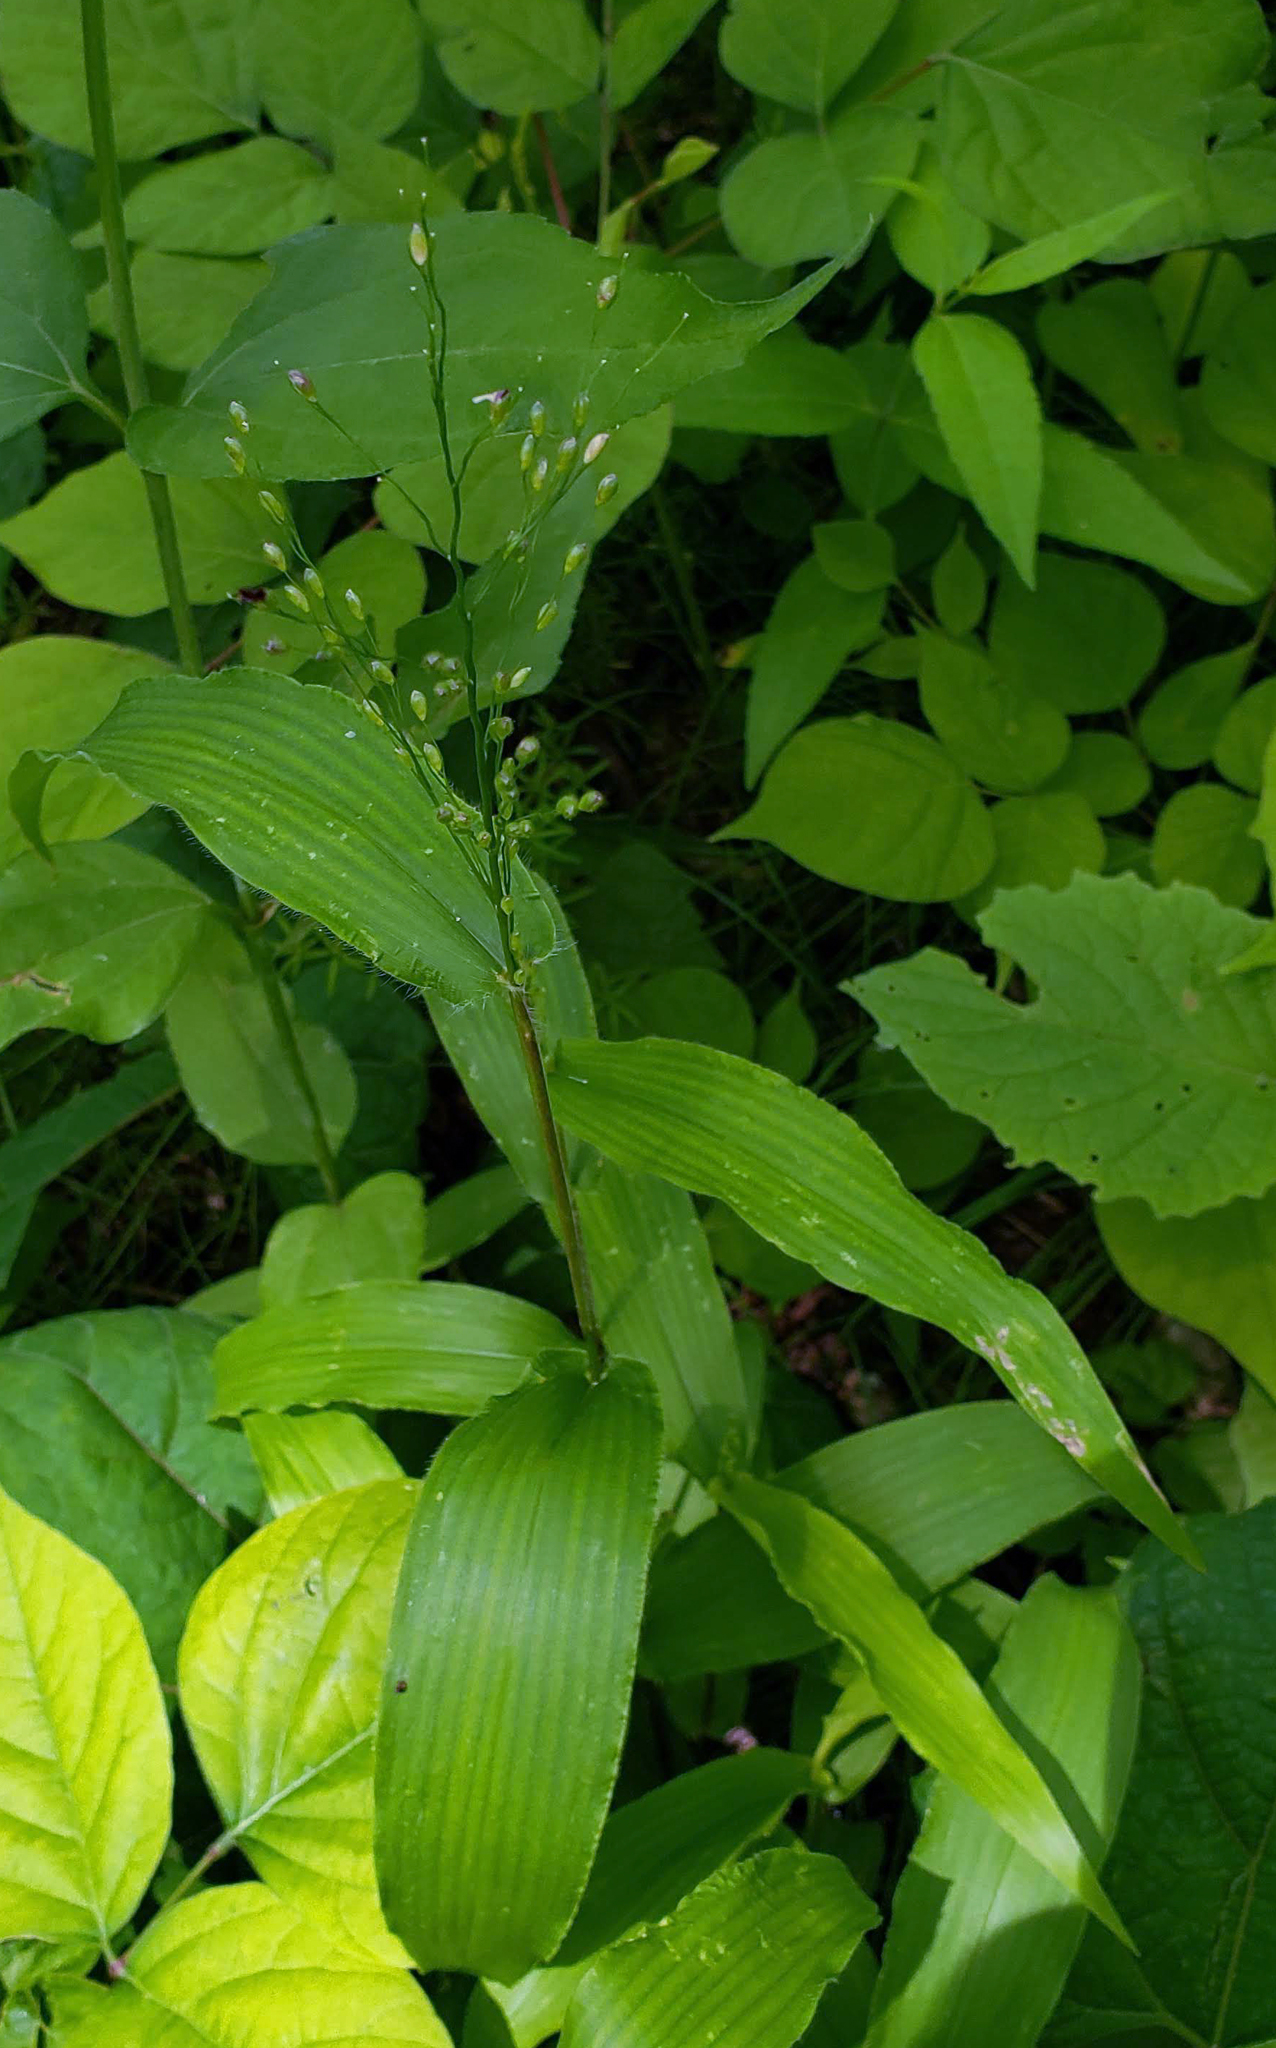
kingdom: Plantae
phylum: Tracheophyta
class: Liliopsida
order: Poales
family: Poaceae
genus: Dichanthelium
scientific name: Dichanthelium latifolium
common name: Broad-leaved panicgrass
